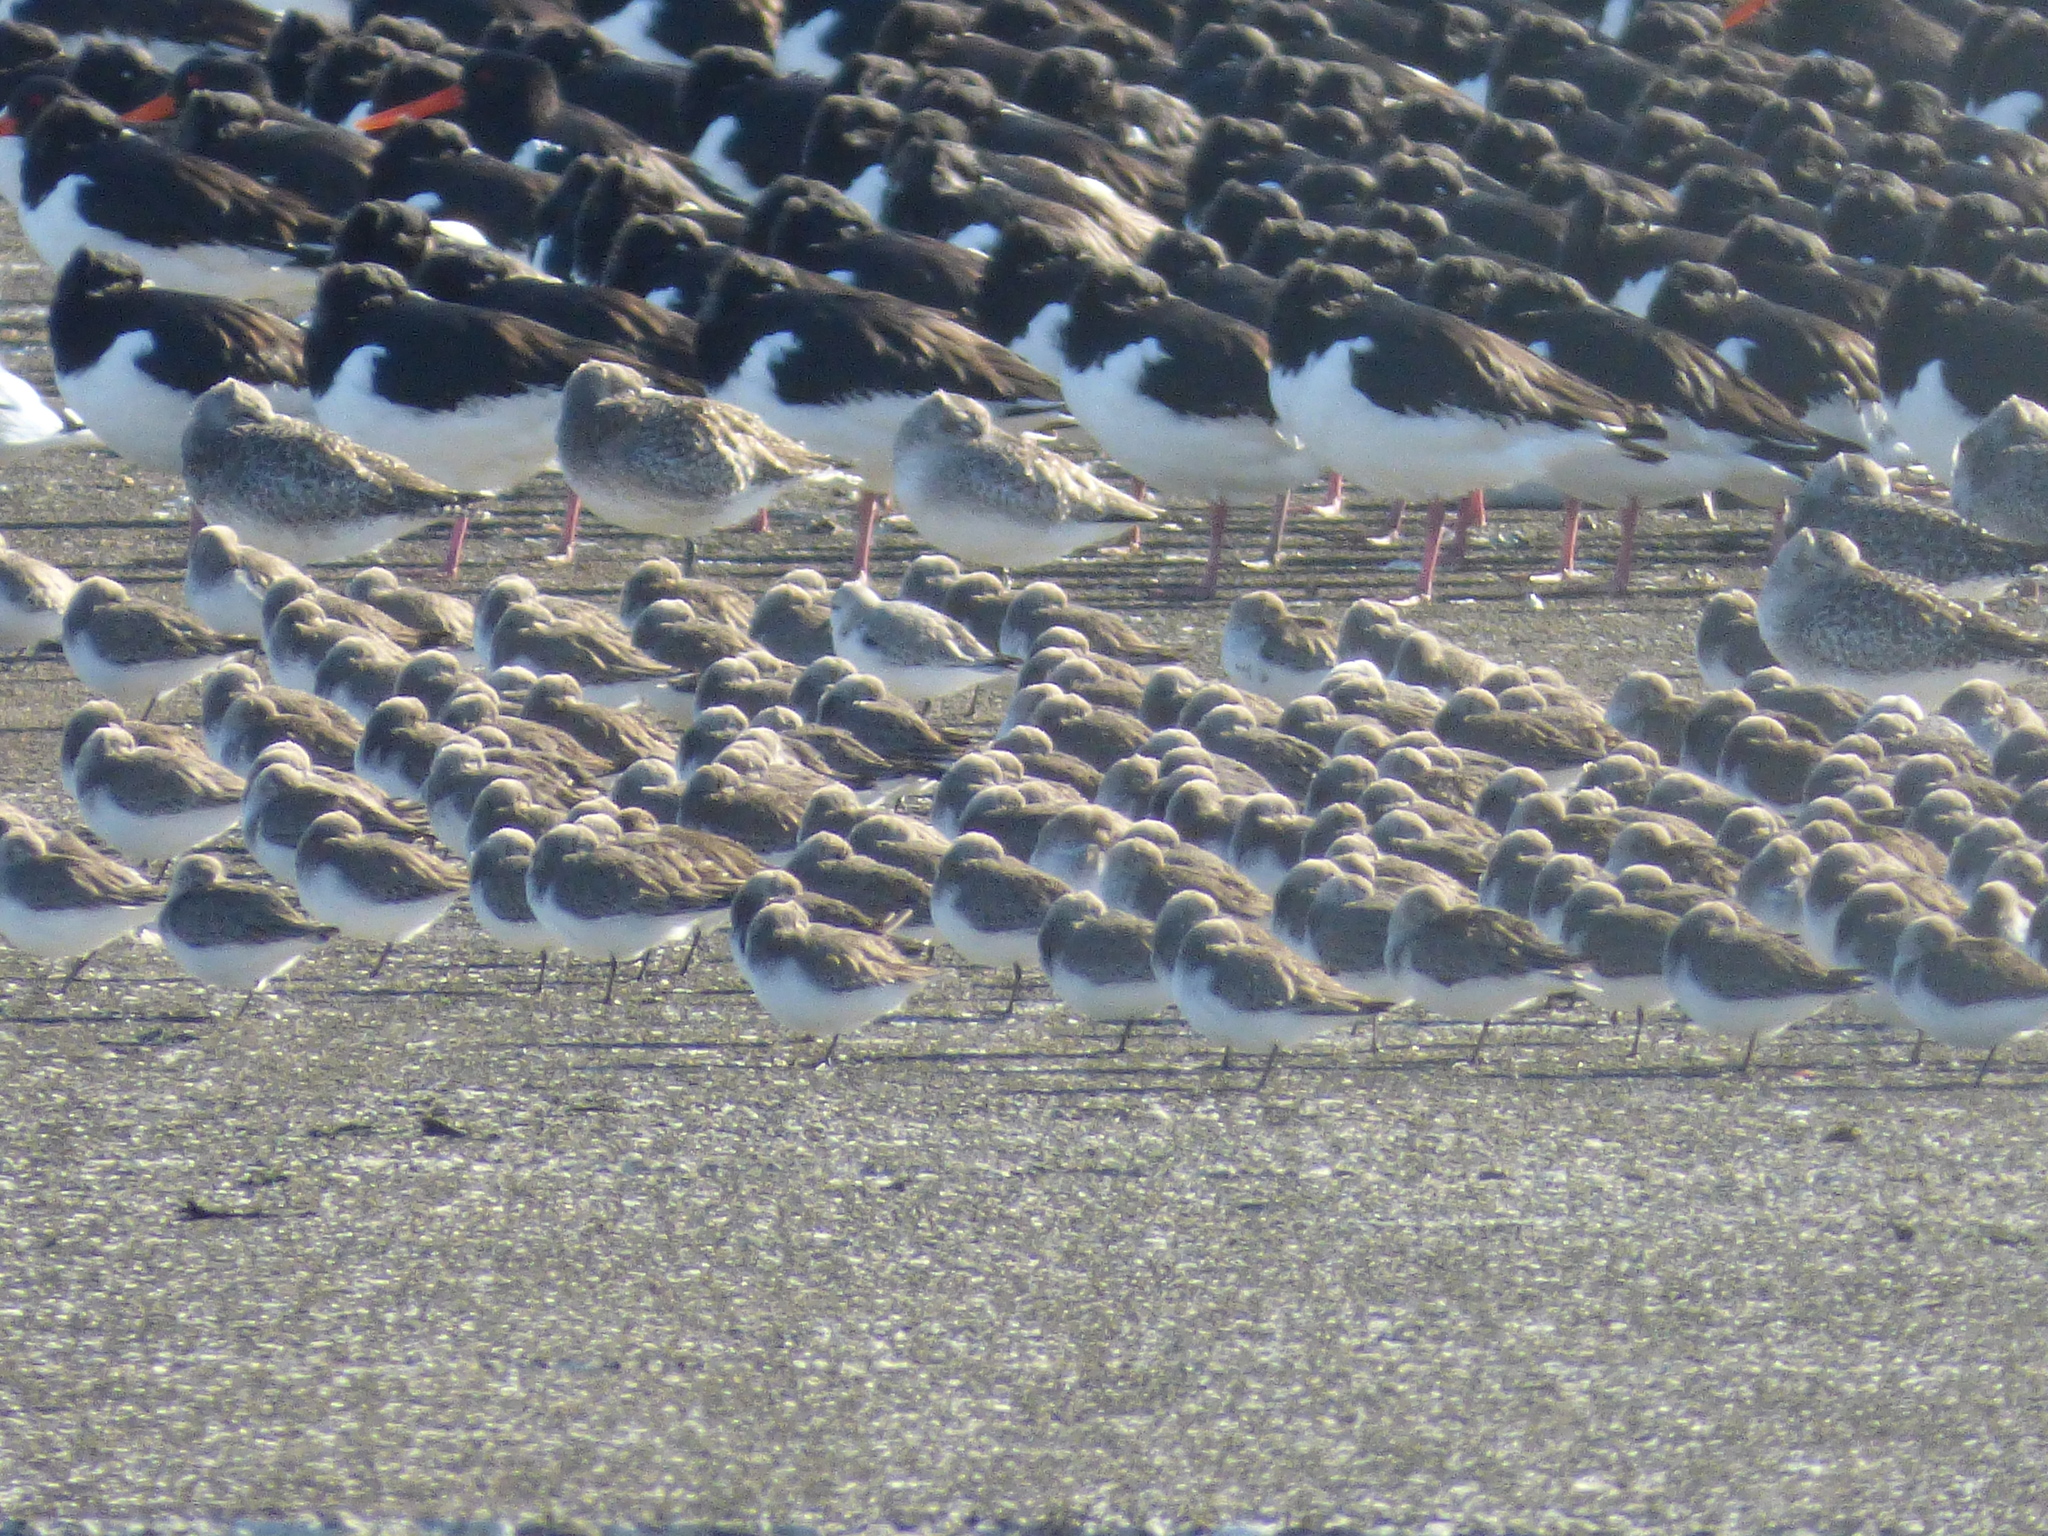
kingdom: Animalia
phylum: Chordata
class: Aves
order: Charadriiformes
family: Scolopacidae
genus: Calidris
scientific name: Calidris alba
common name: Sanderling
